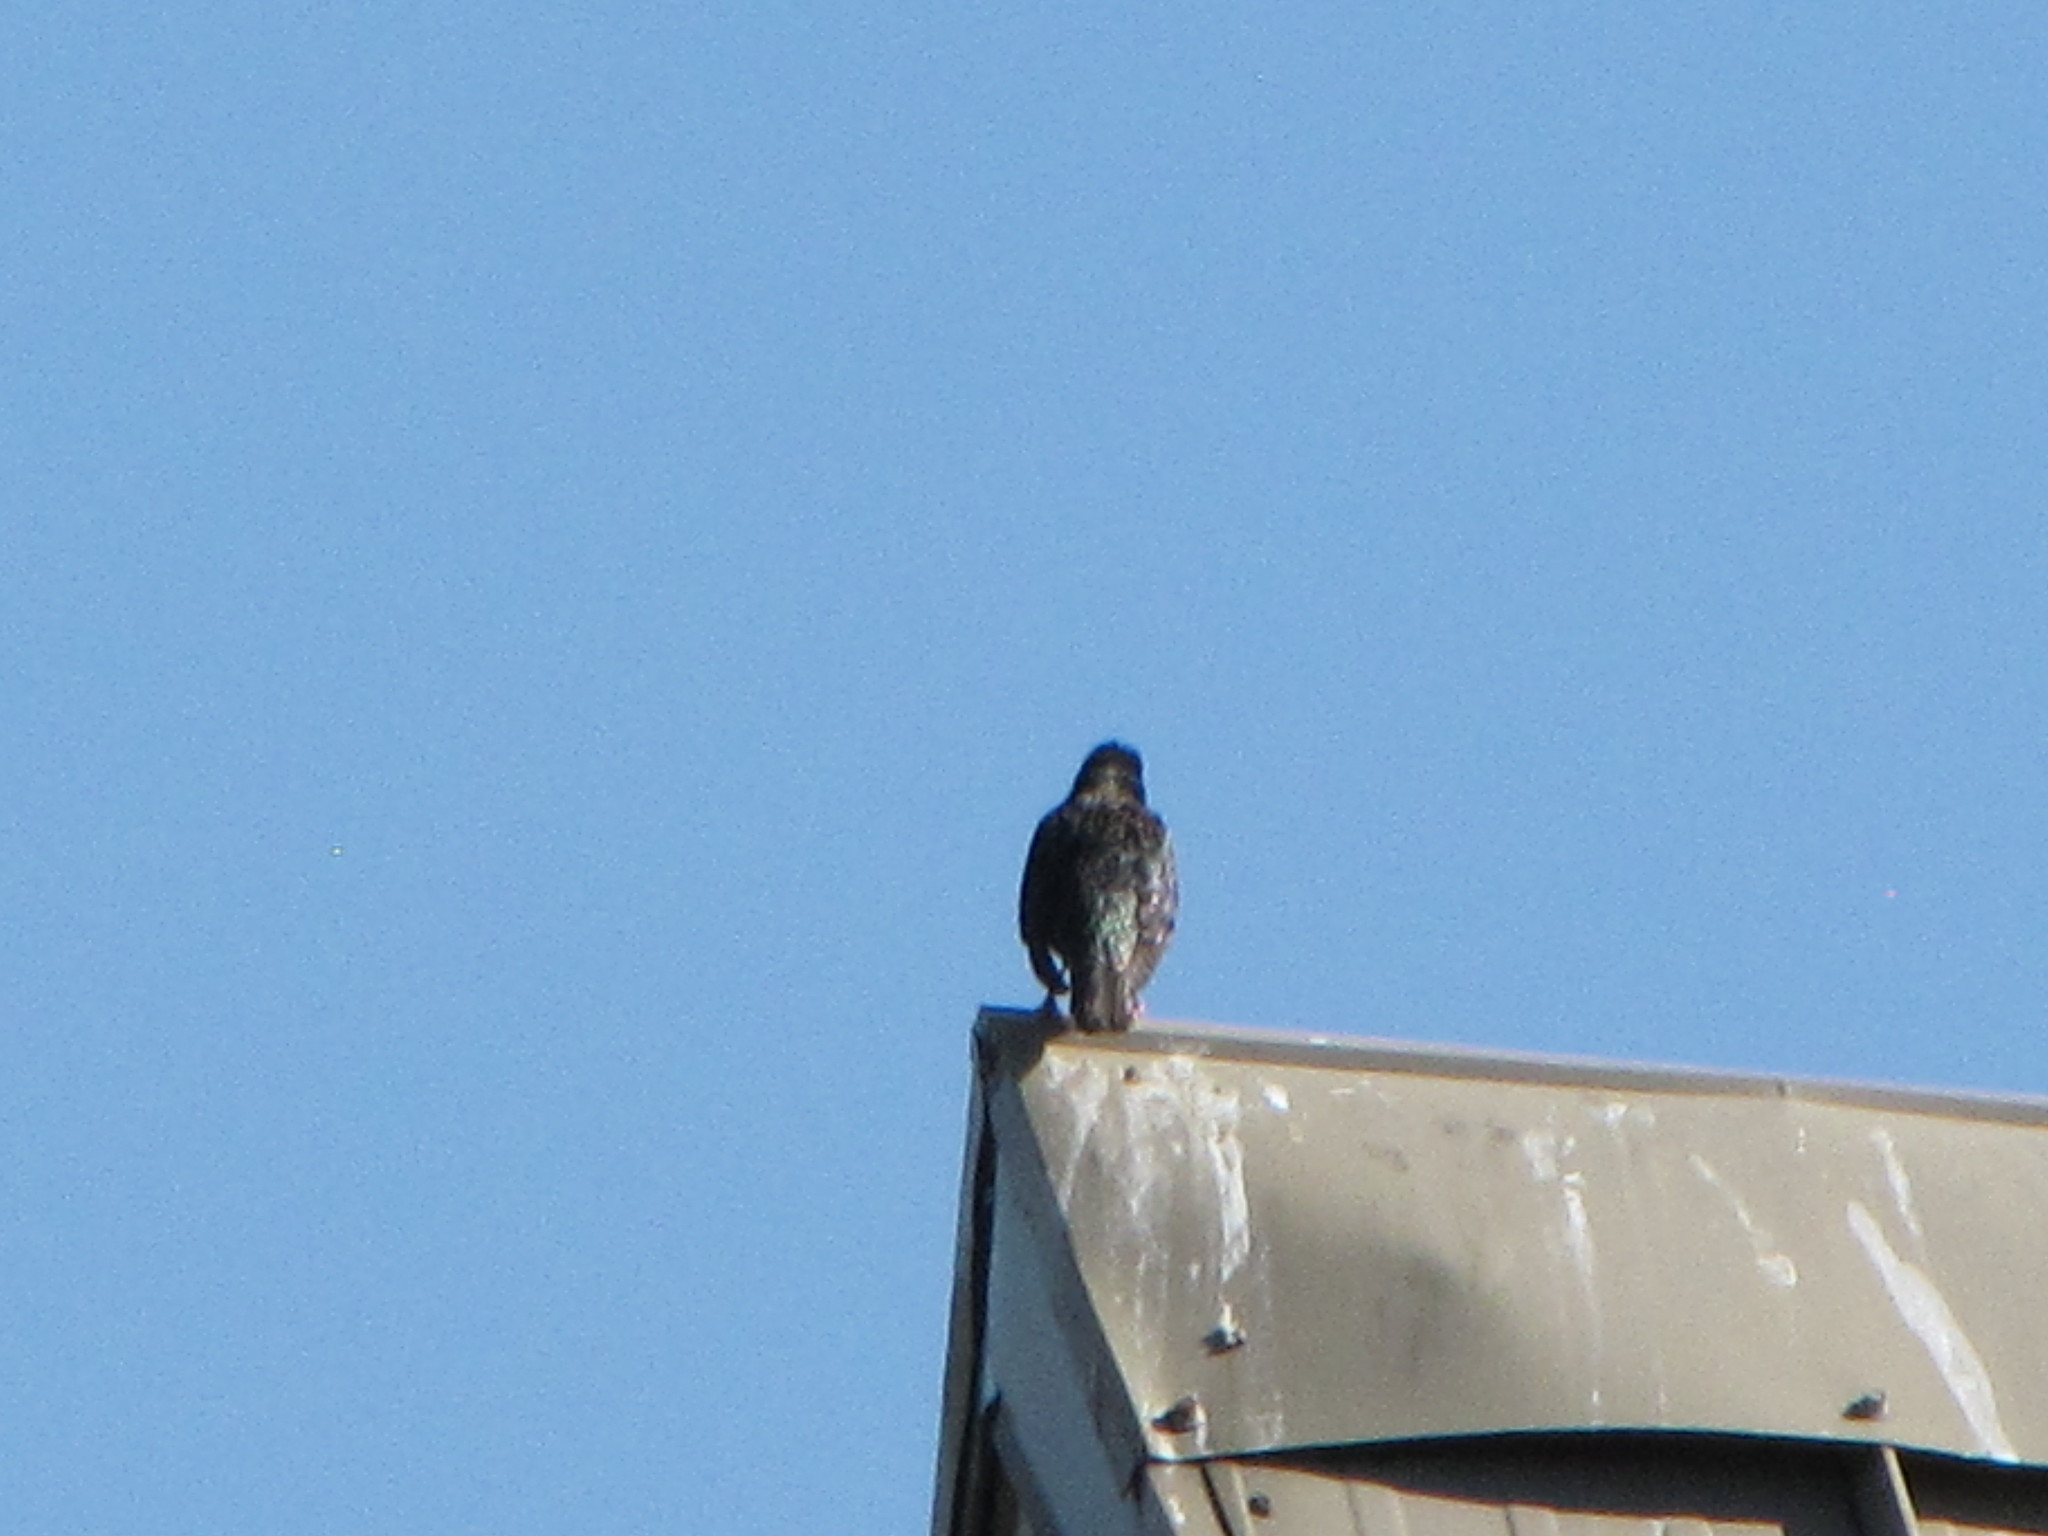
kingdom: Animalia
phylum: Chordata
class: Aves
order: Passeriformes
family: Sturnidae
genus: Sturnus
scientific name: Sturnus vulgaris
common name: Common starling
